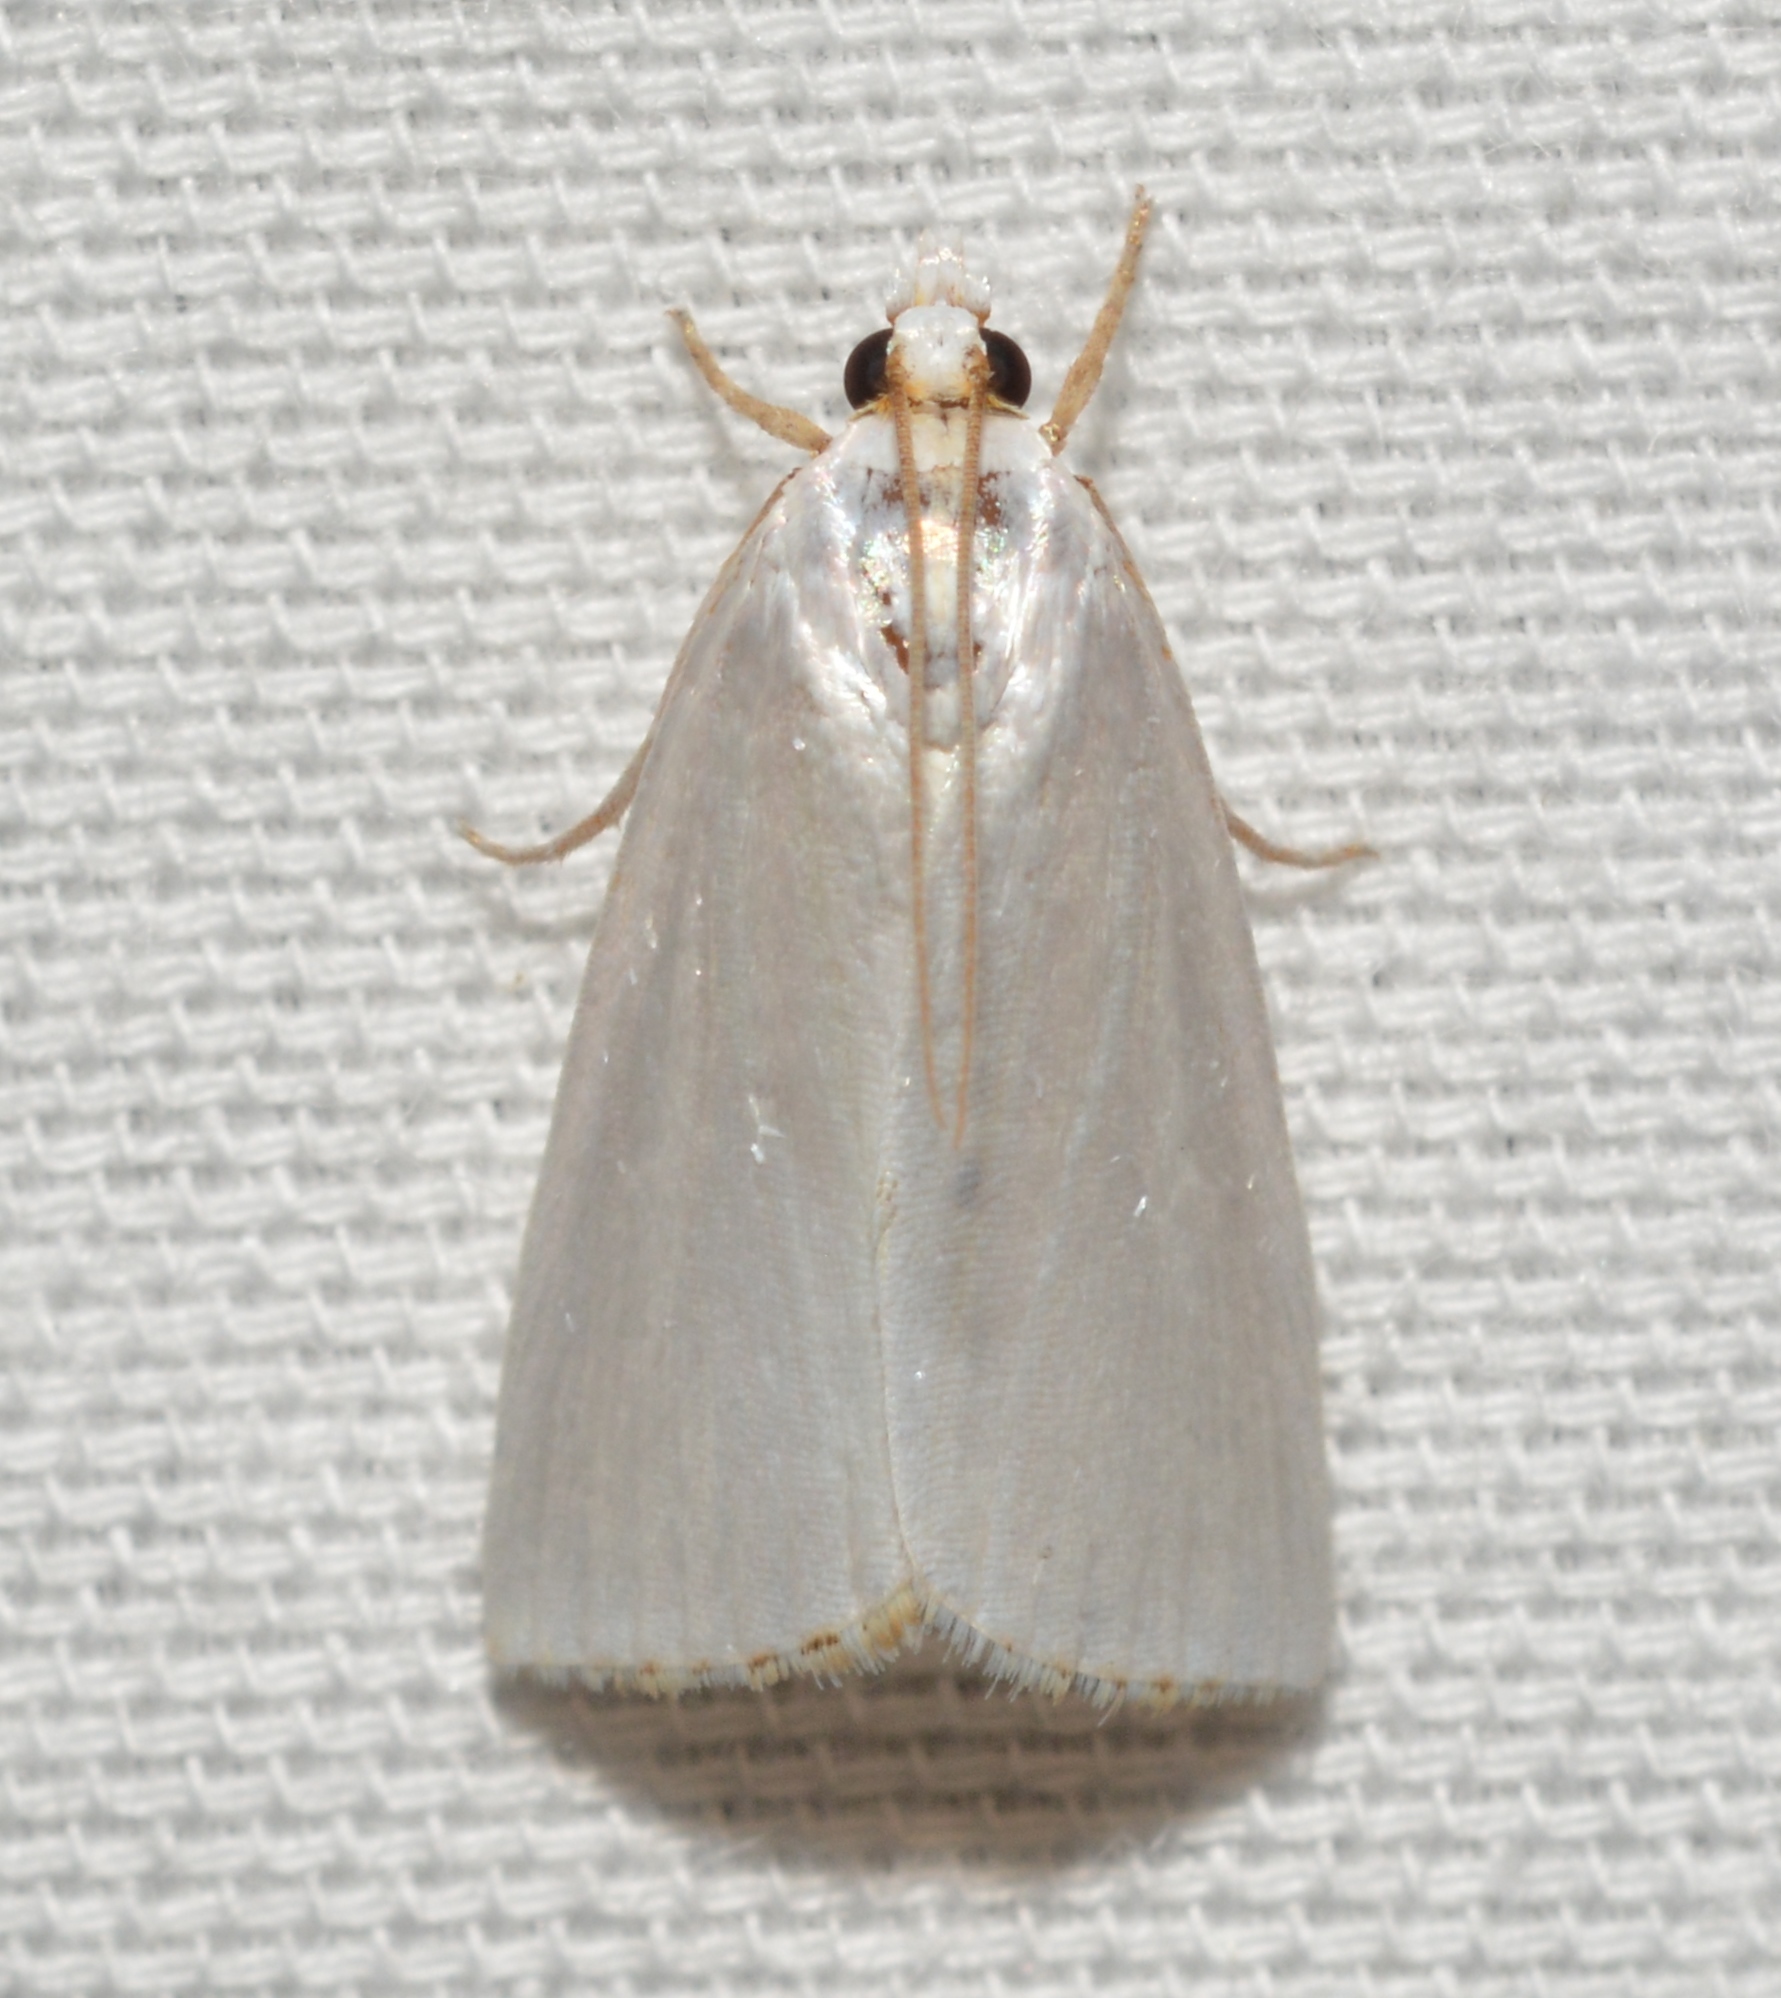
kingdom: Animalia
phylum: Arthropoda
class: Insecta
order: Lepidoptera
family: Crambidae
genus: Argyria
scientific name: Argyria nivalis
